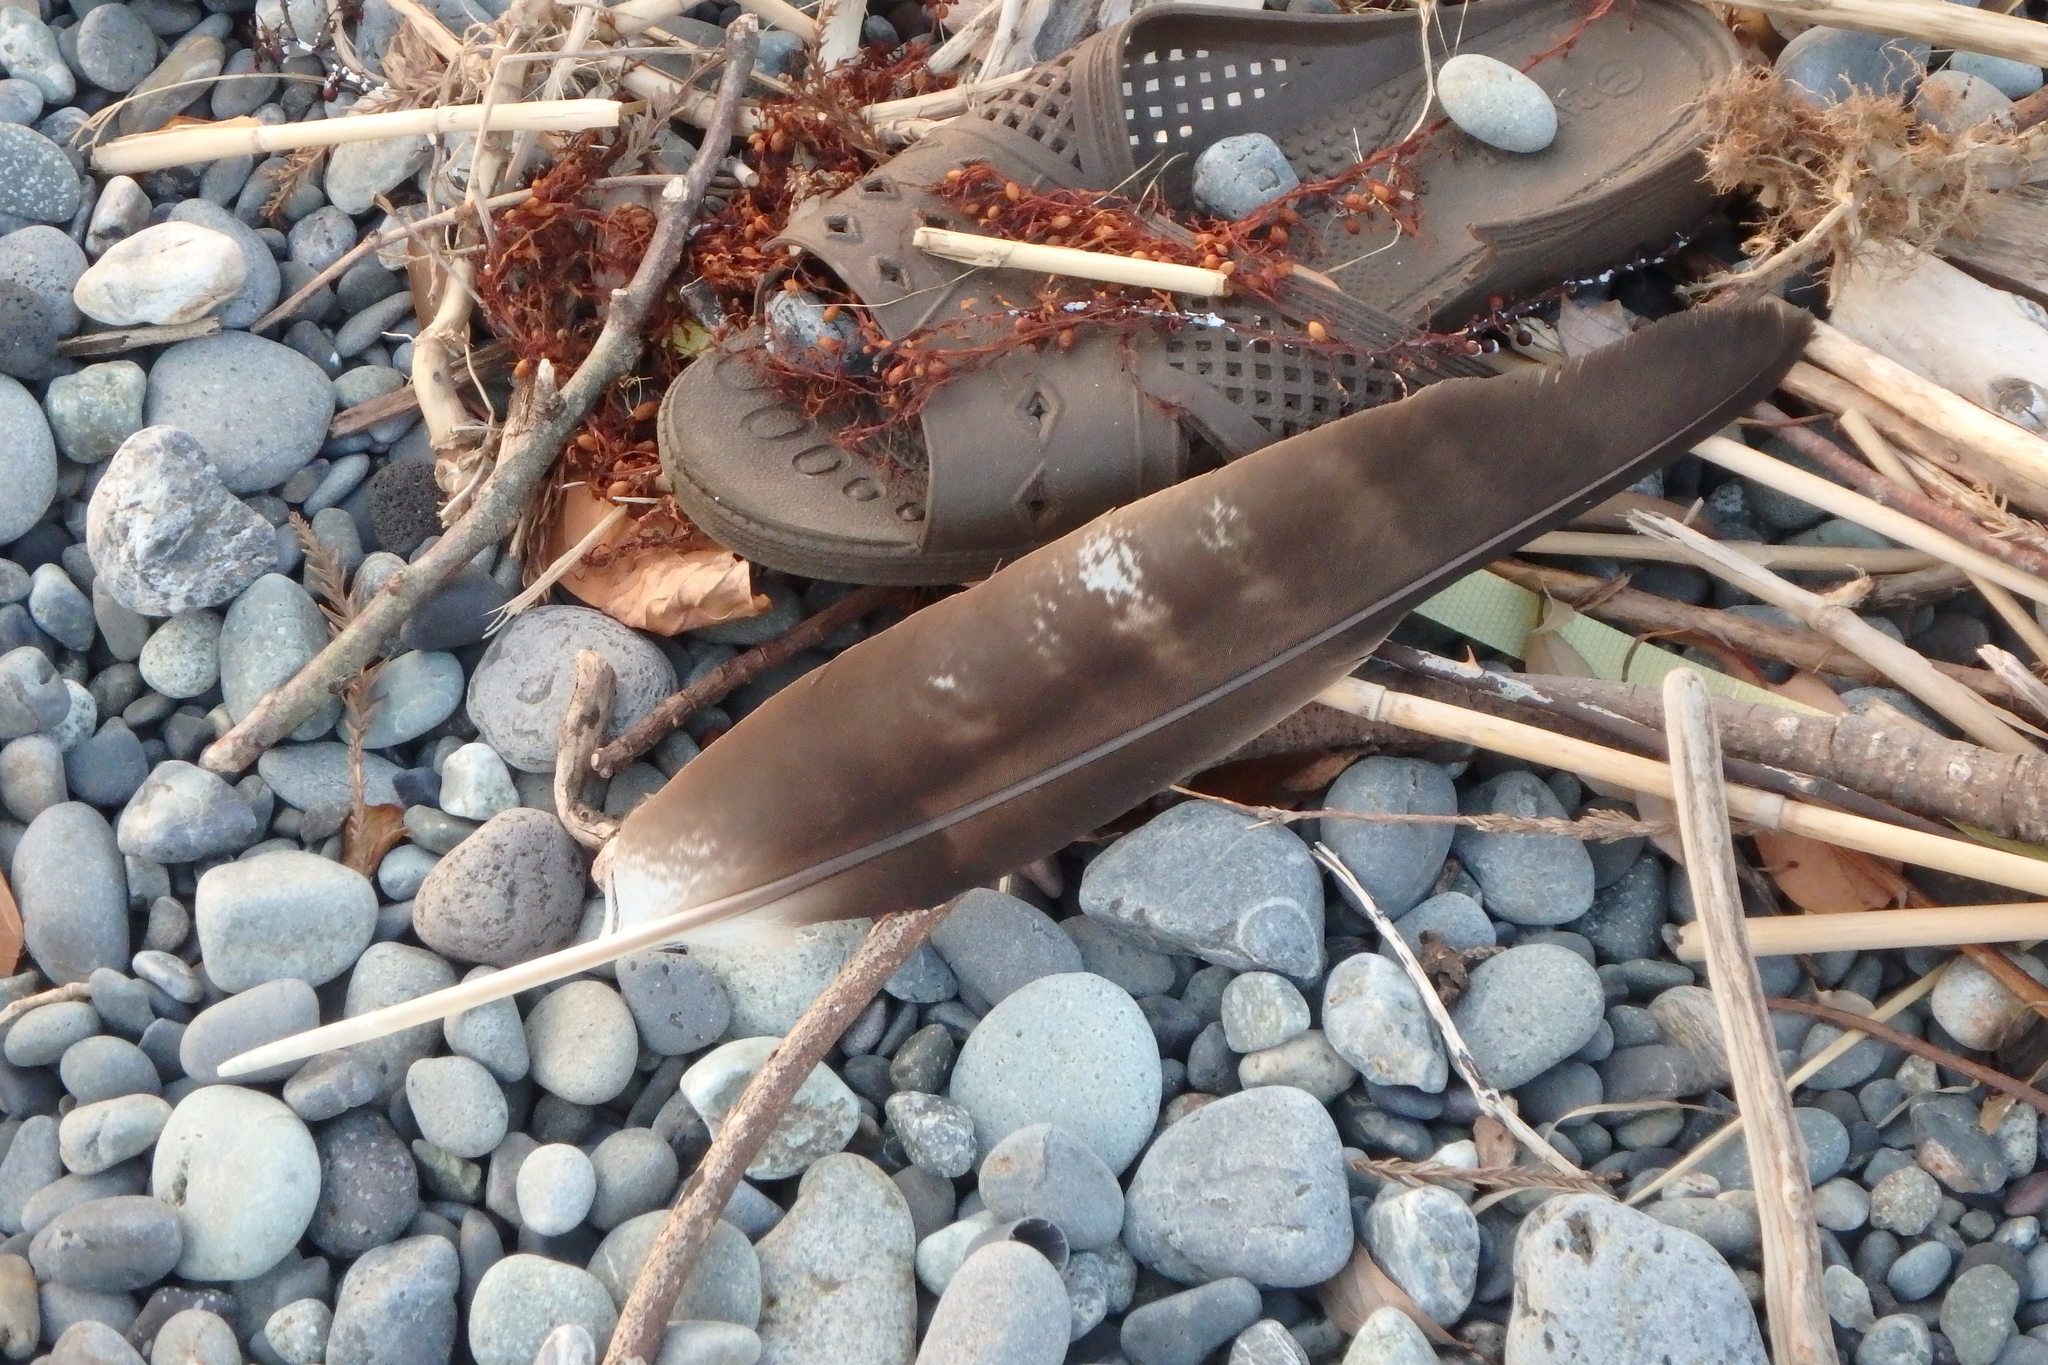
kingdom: Animalia
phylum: Chordata
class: Aves
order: Accipitriformes
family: Accipitridae
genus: Milvus
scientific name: Milvus migrans
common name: Black kite
